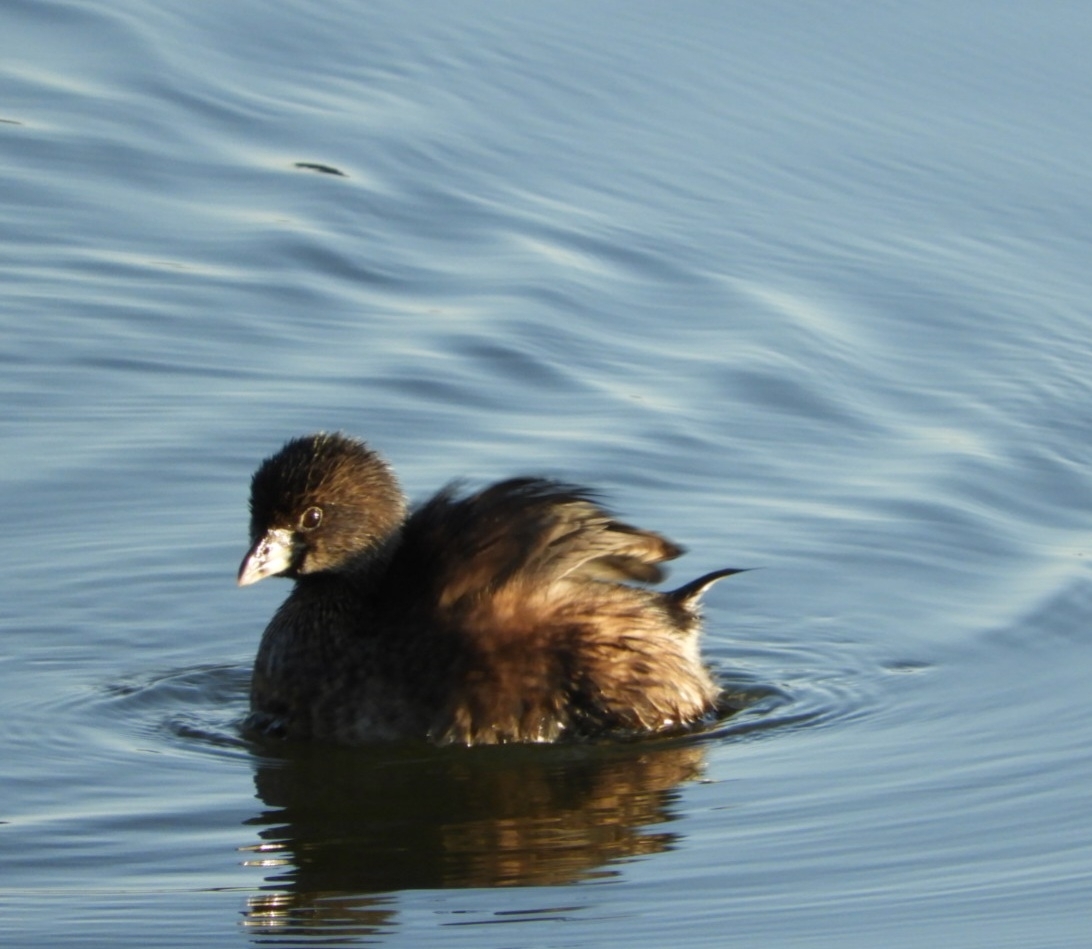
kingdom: Animalia
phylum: Chordata
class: Aves
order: Podicipediformes
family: Podicipedidae
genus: Podilymbus
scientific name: Podilymbus podiceps
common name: Pied-billed grebe
